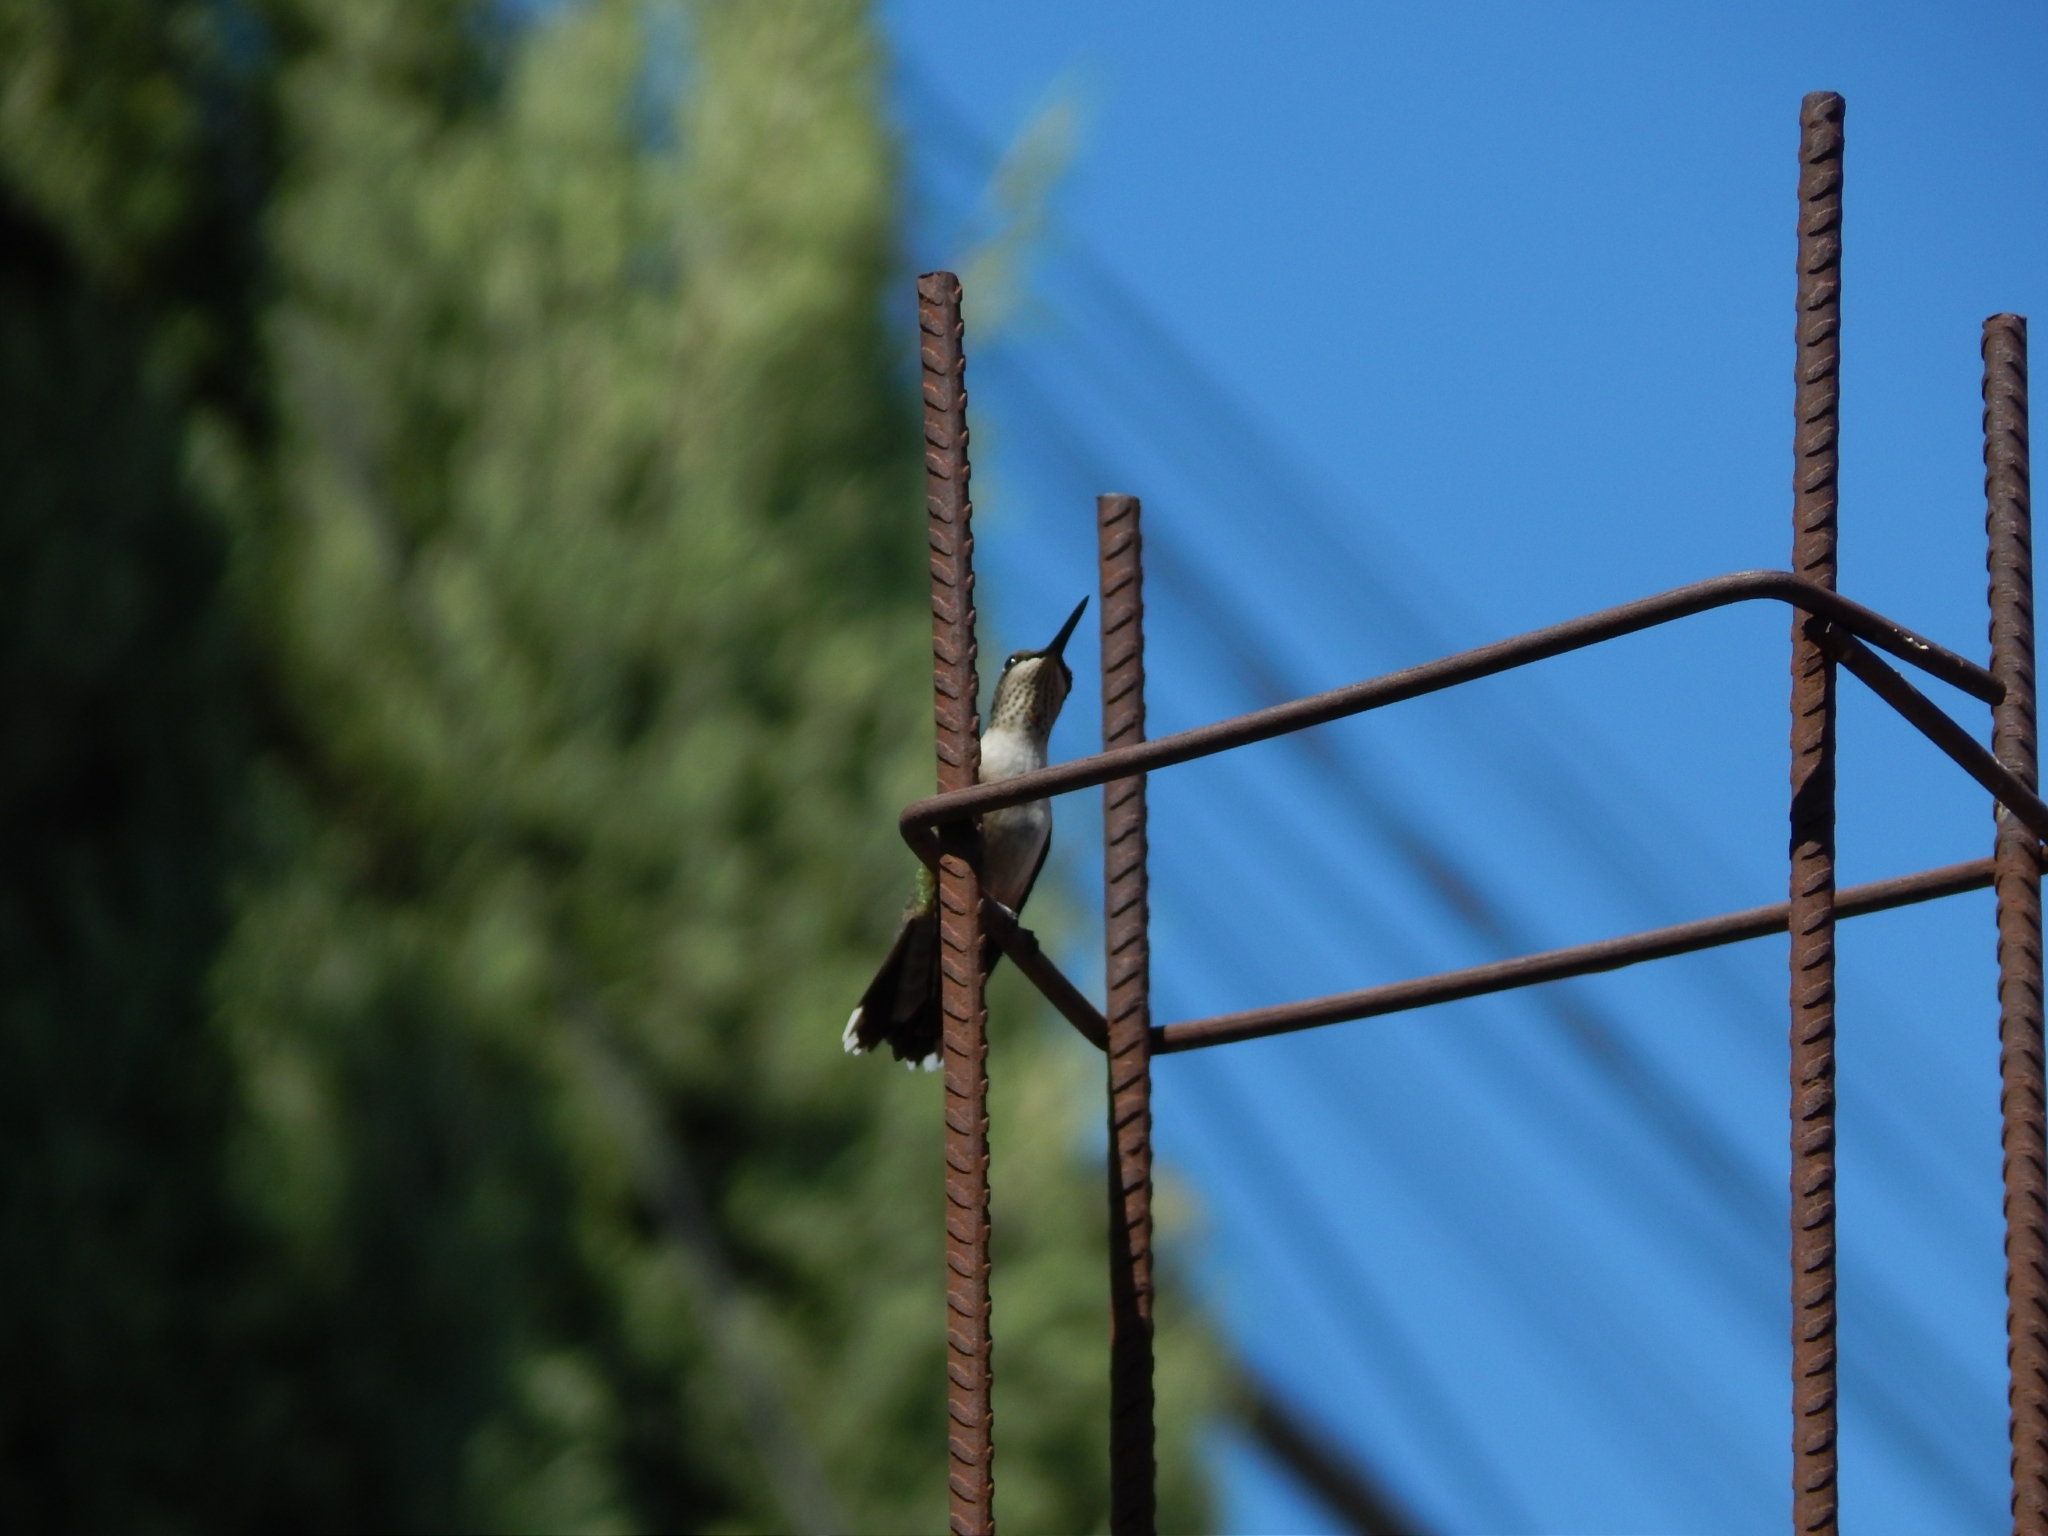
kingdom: Animalia
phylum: Chordata
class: Aves
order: Apodiformes
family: Trochilidae
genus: Archilochus
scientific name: Archilochus colubris
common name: Ruby-throated hummingbird
